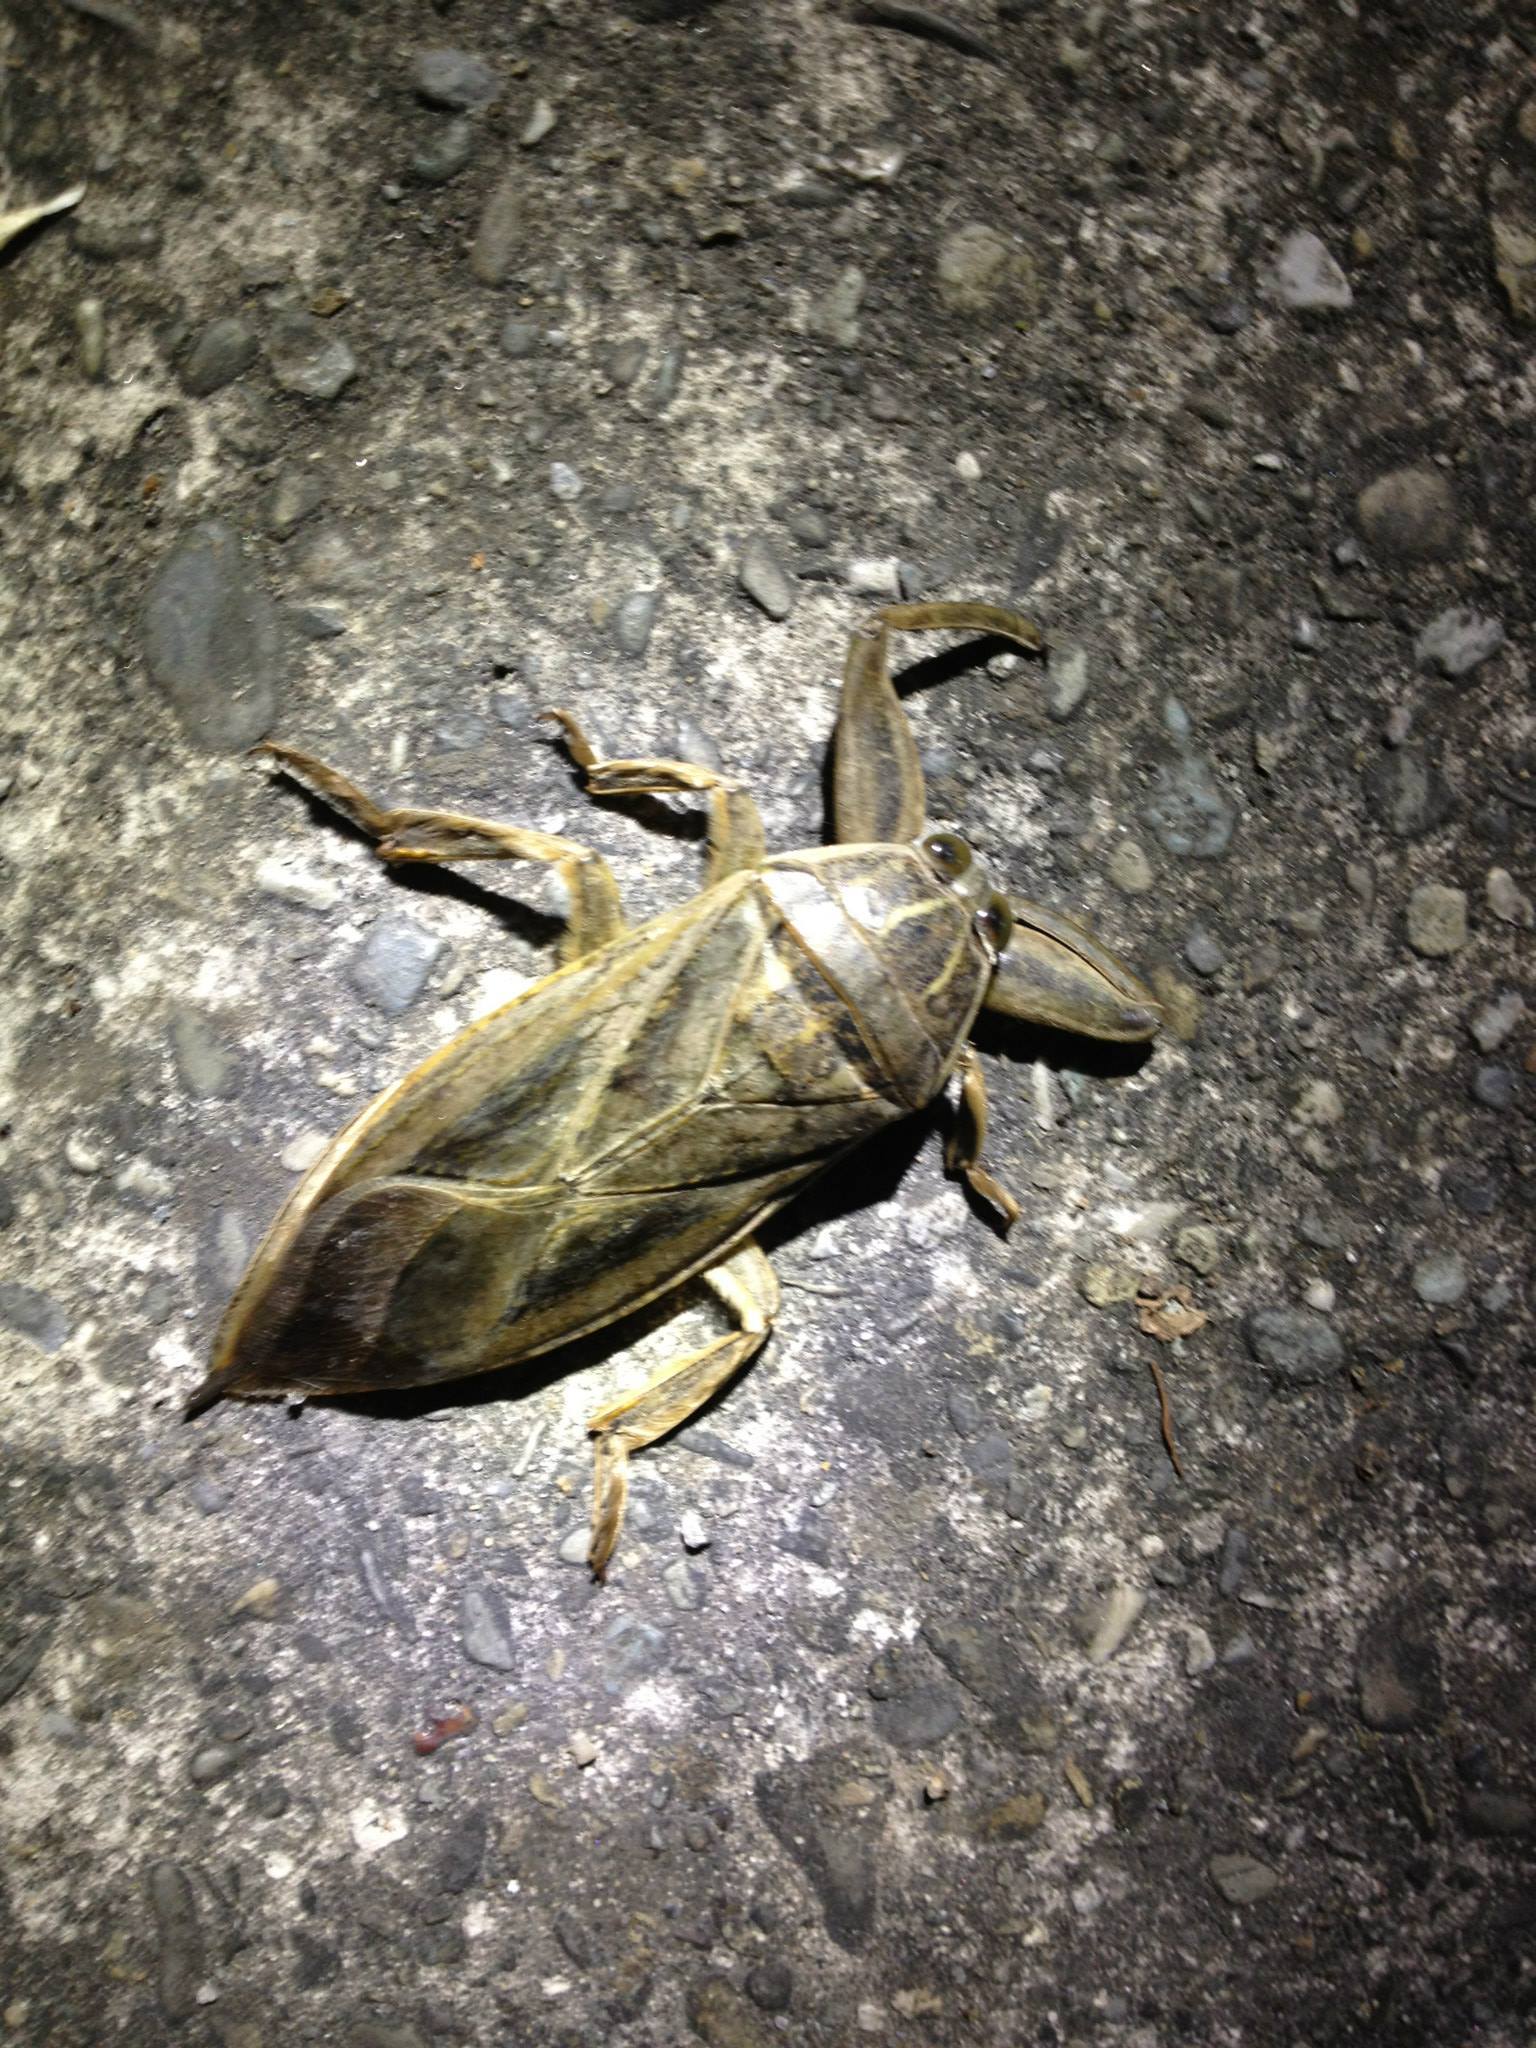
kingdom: Animalia
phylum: Arthropoda
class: Insecta
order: Hemiptera
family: Belostomatidae
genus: Lethocerus
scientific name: Lethocerus patruelis
